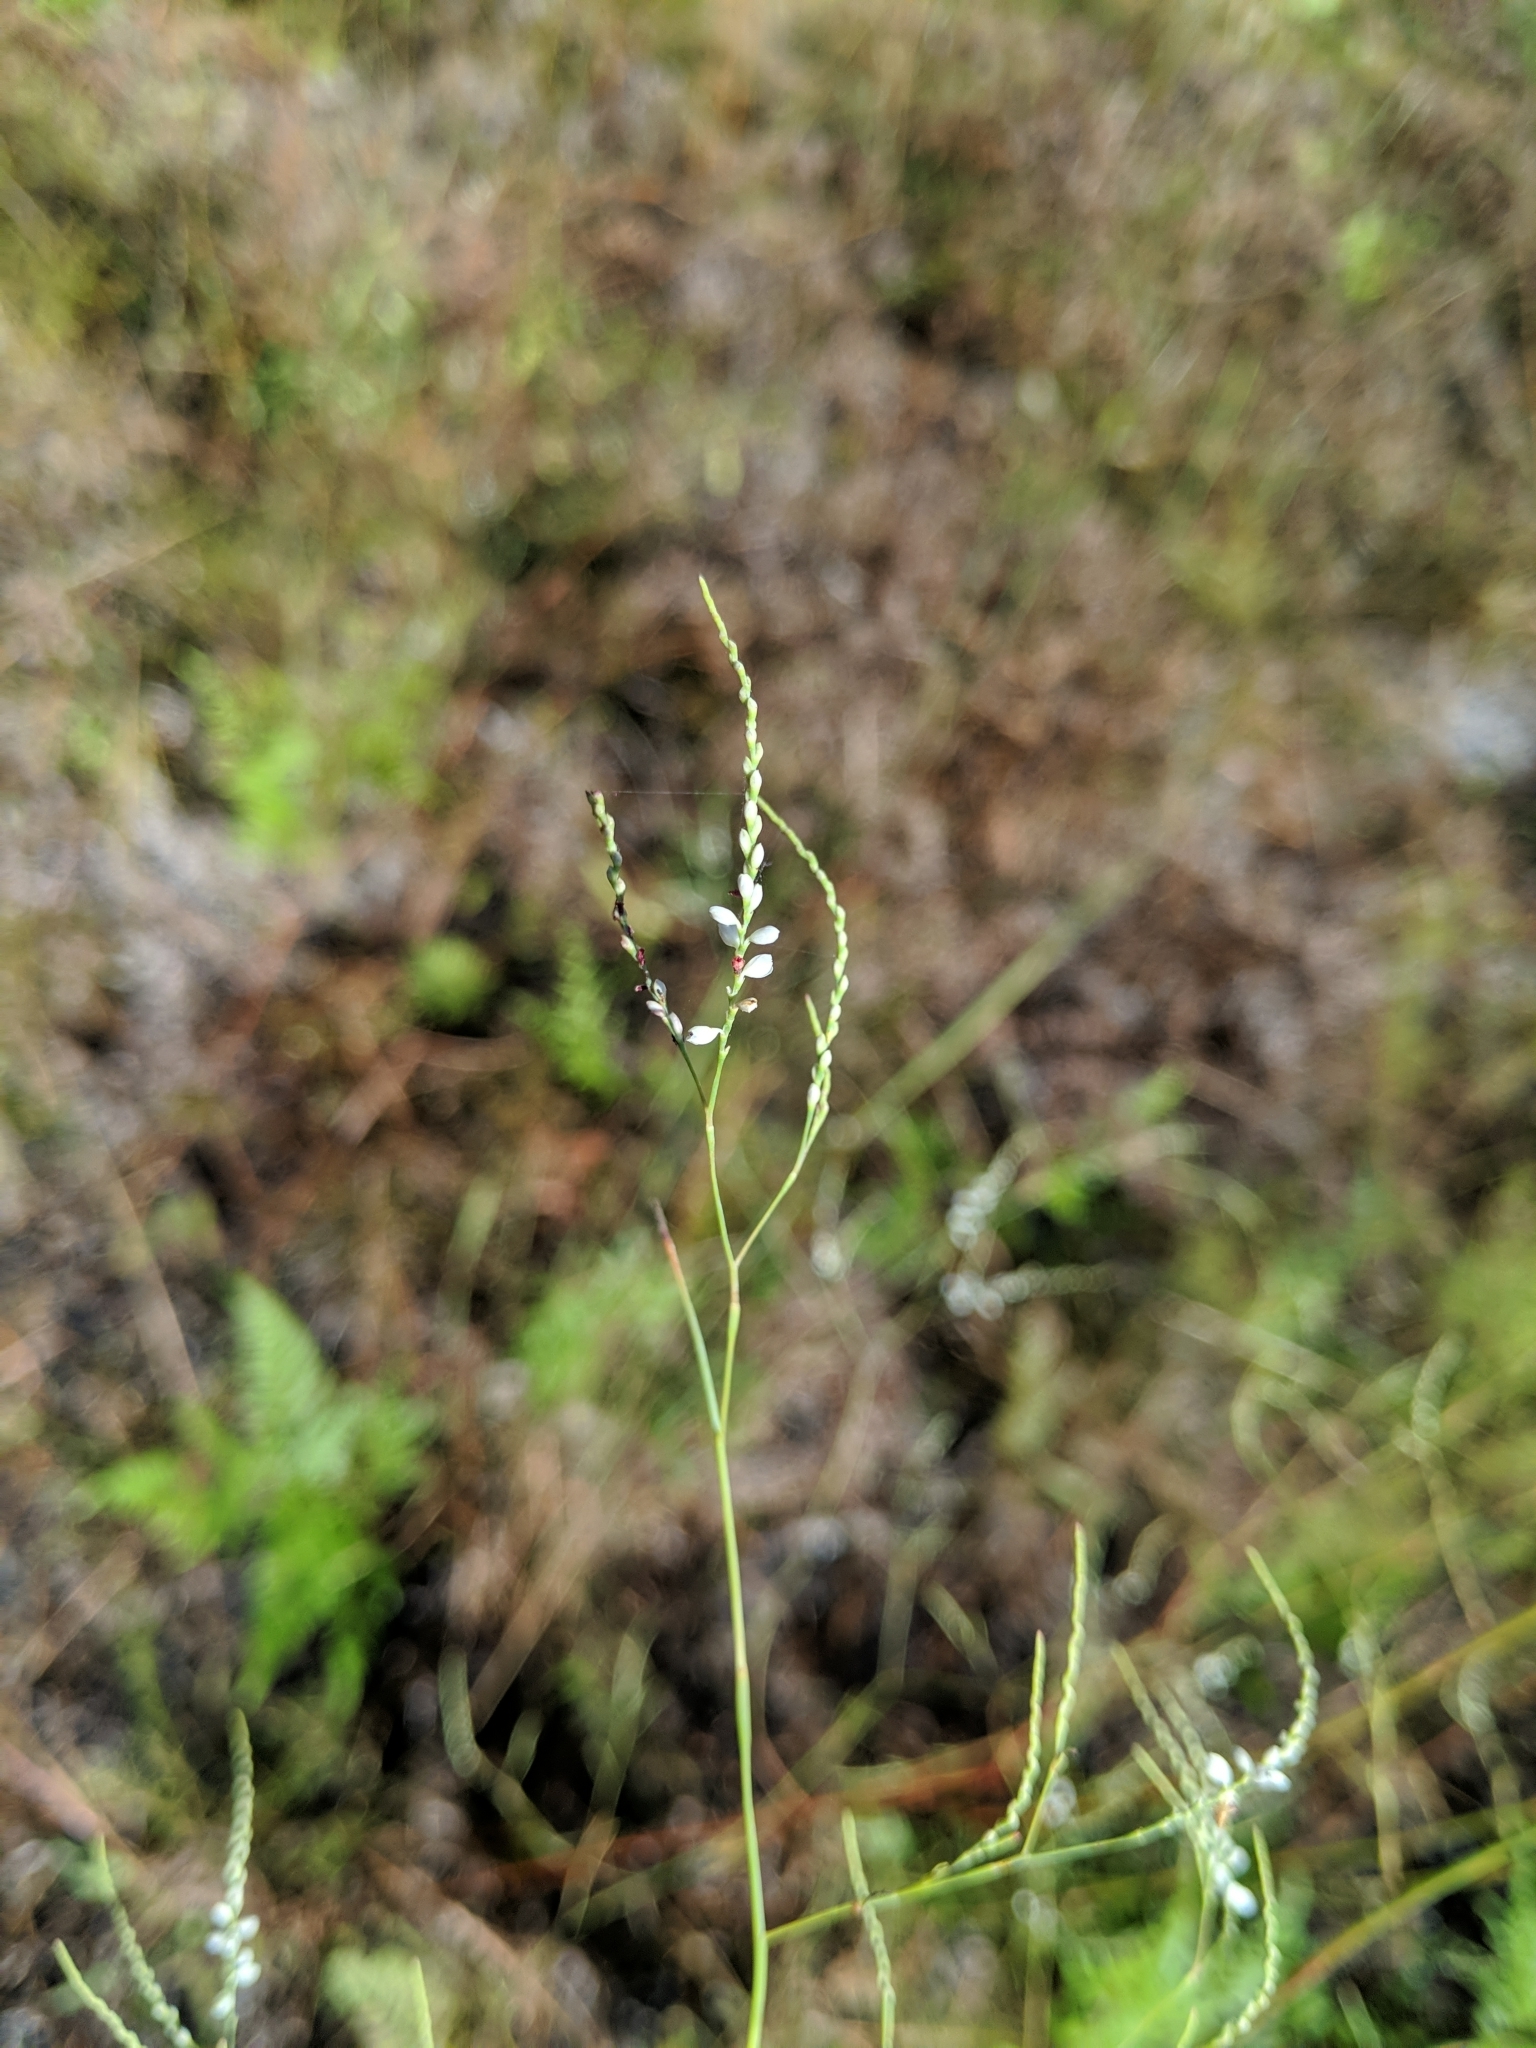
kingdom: Plantae
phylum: Tracheophyta
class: Magnoliopsida
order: Caryophyllales
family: Polygonaceae
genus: Polygonella
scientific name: Polygonella gracilis
